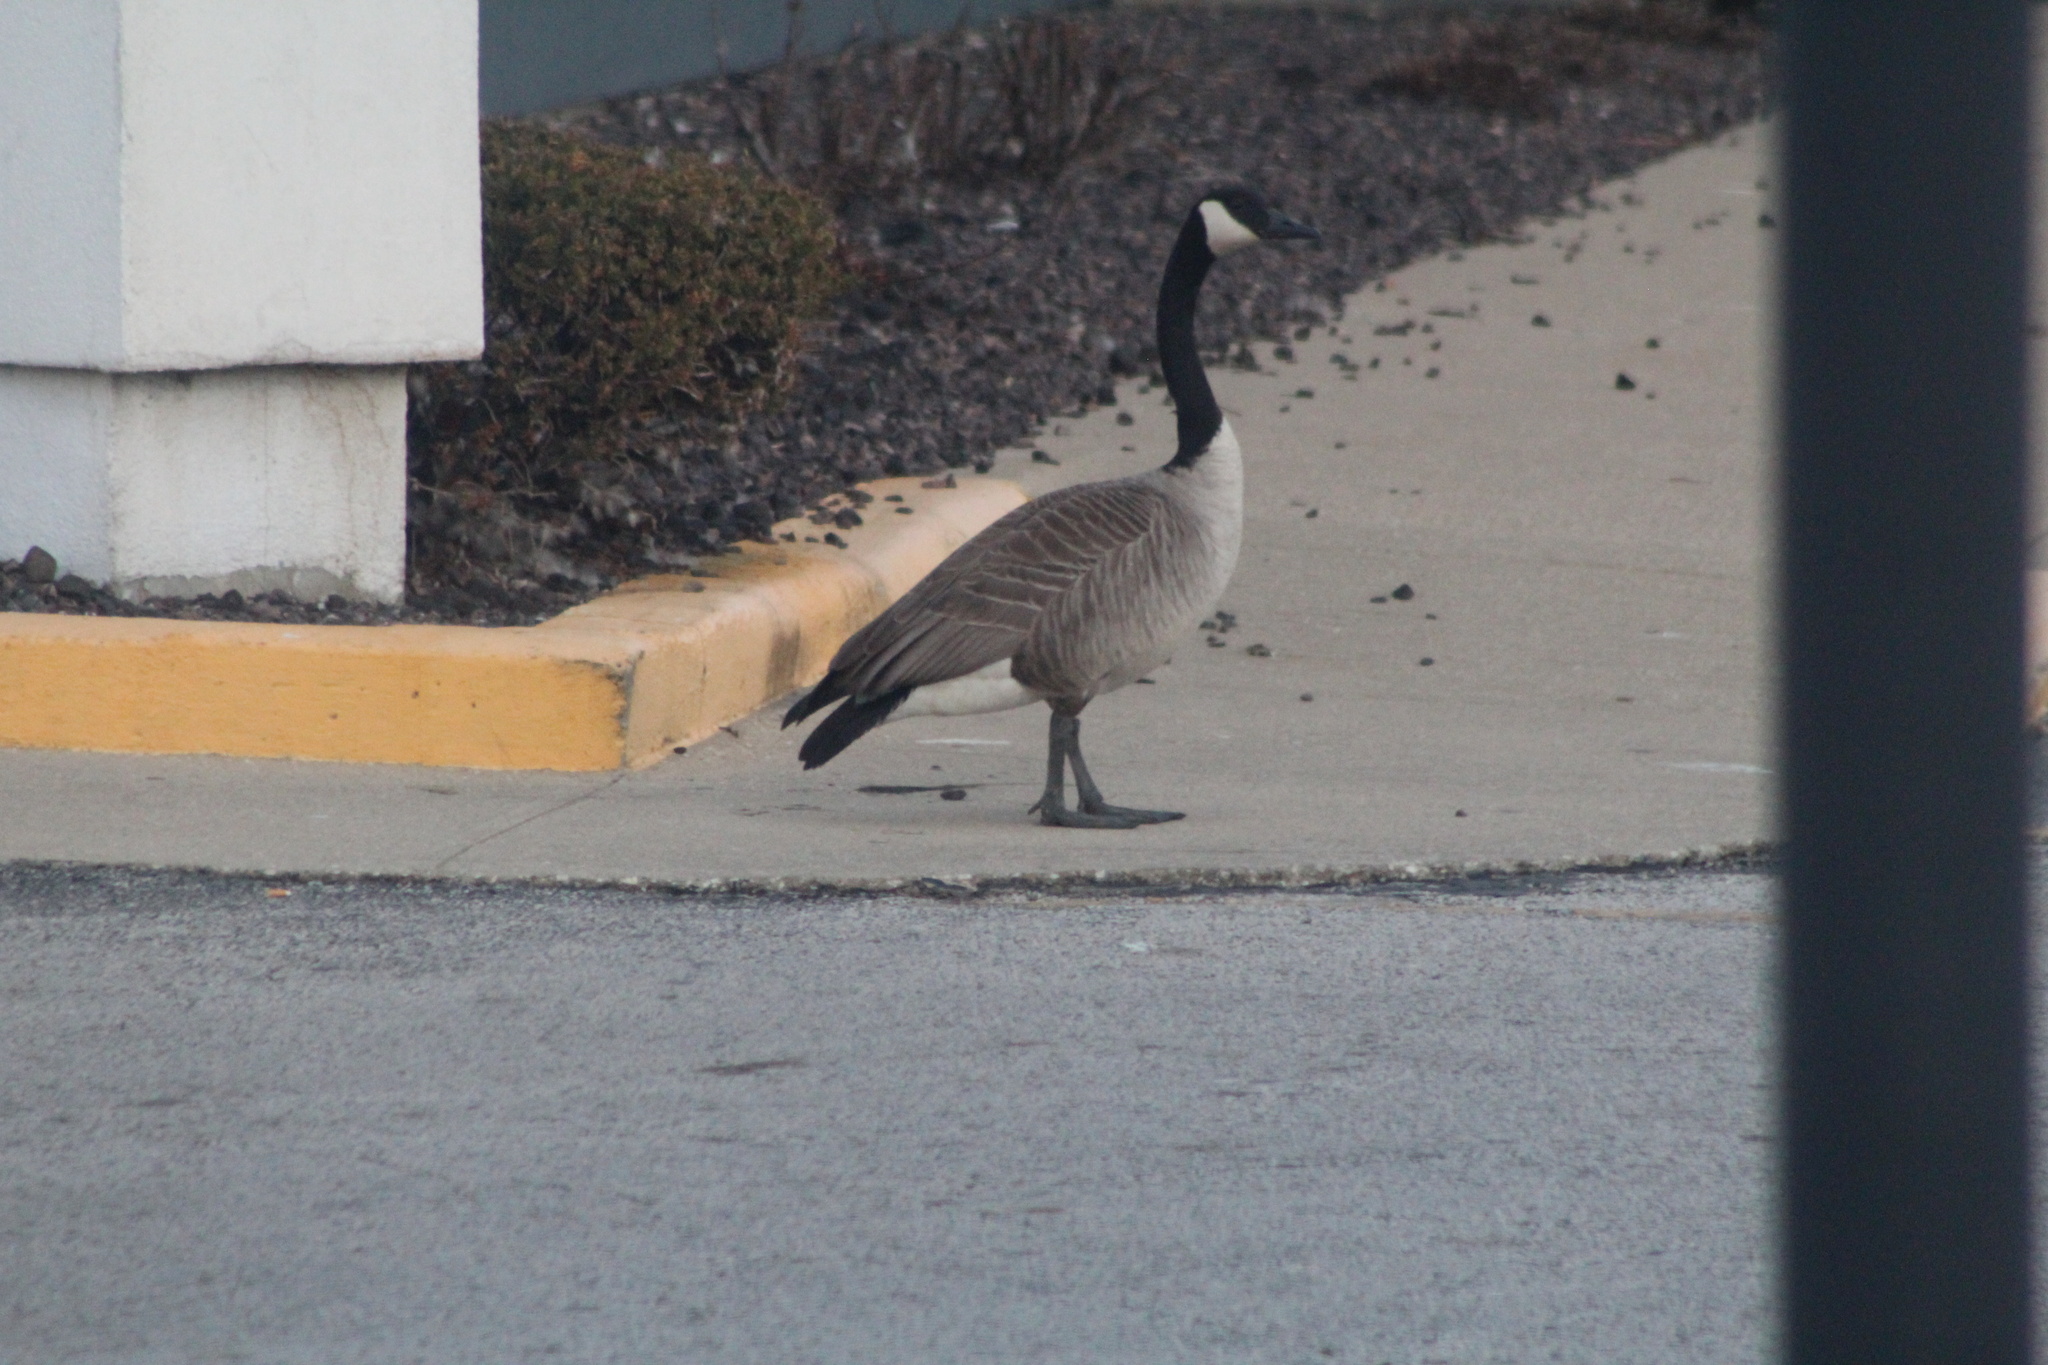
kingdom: Animalia
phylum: Chordata
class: Aves
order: Anseriformes
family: Anatidae
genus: Branta
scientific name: Branta canadensis
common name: Canada goose
